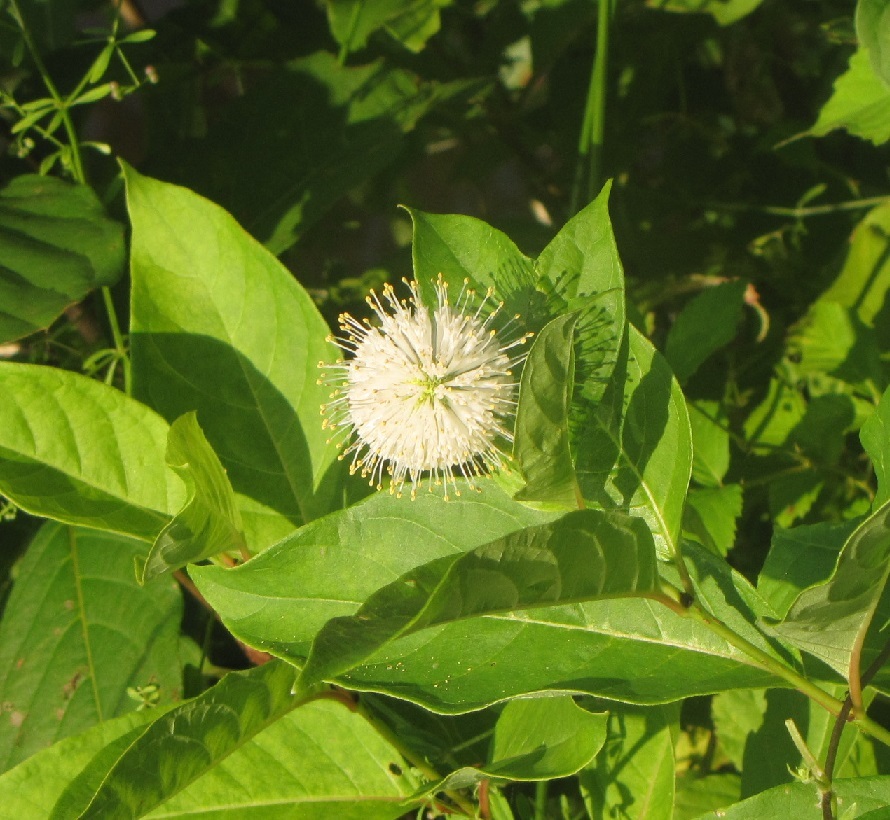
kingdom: Plantae
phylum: Tracheophyta
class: Magnoliopsida
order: Gentianales
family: Rubiaceae
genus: Cephalanthus
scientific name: Cephalanthus occidentalis
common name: Button-willow
